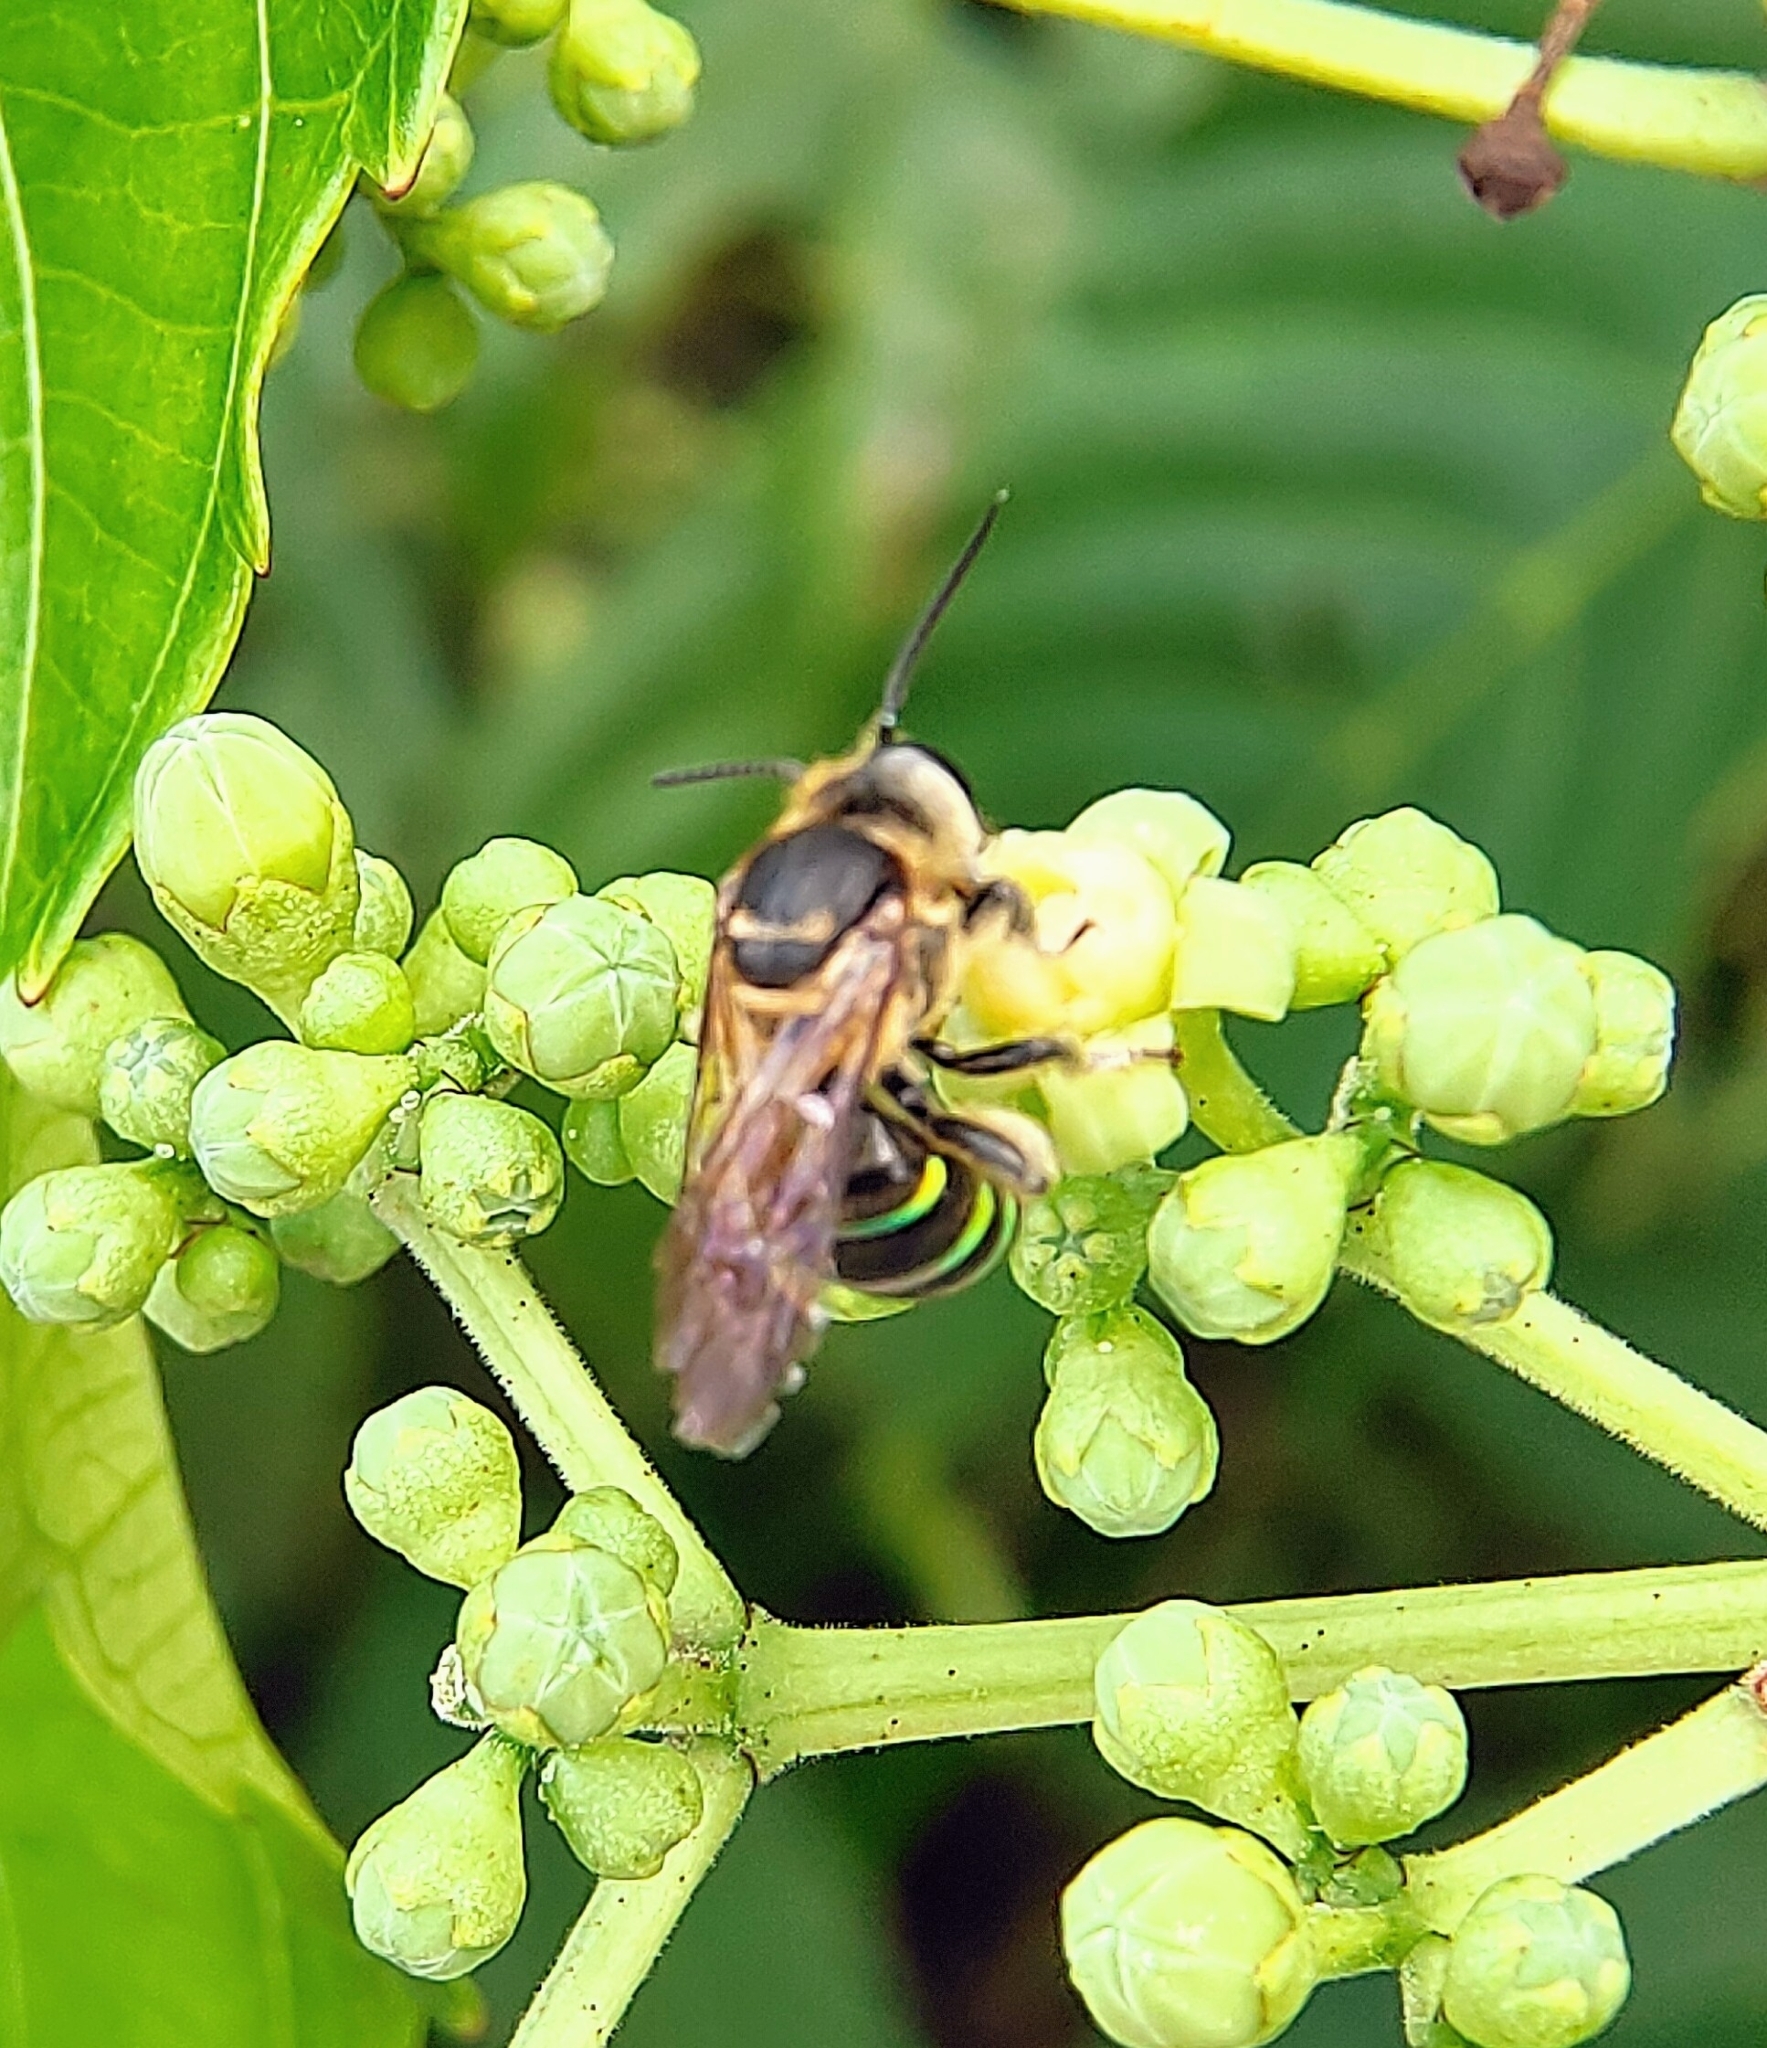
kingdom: Animalia
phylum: Arthropoda
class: Insecta
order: Hymenoptera
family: Halictidae
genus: Nomia
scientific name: Nomia strigata
